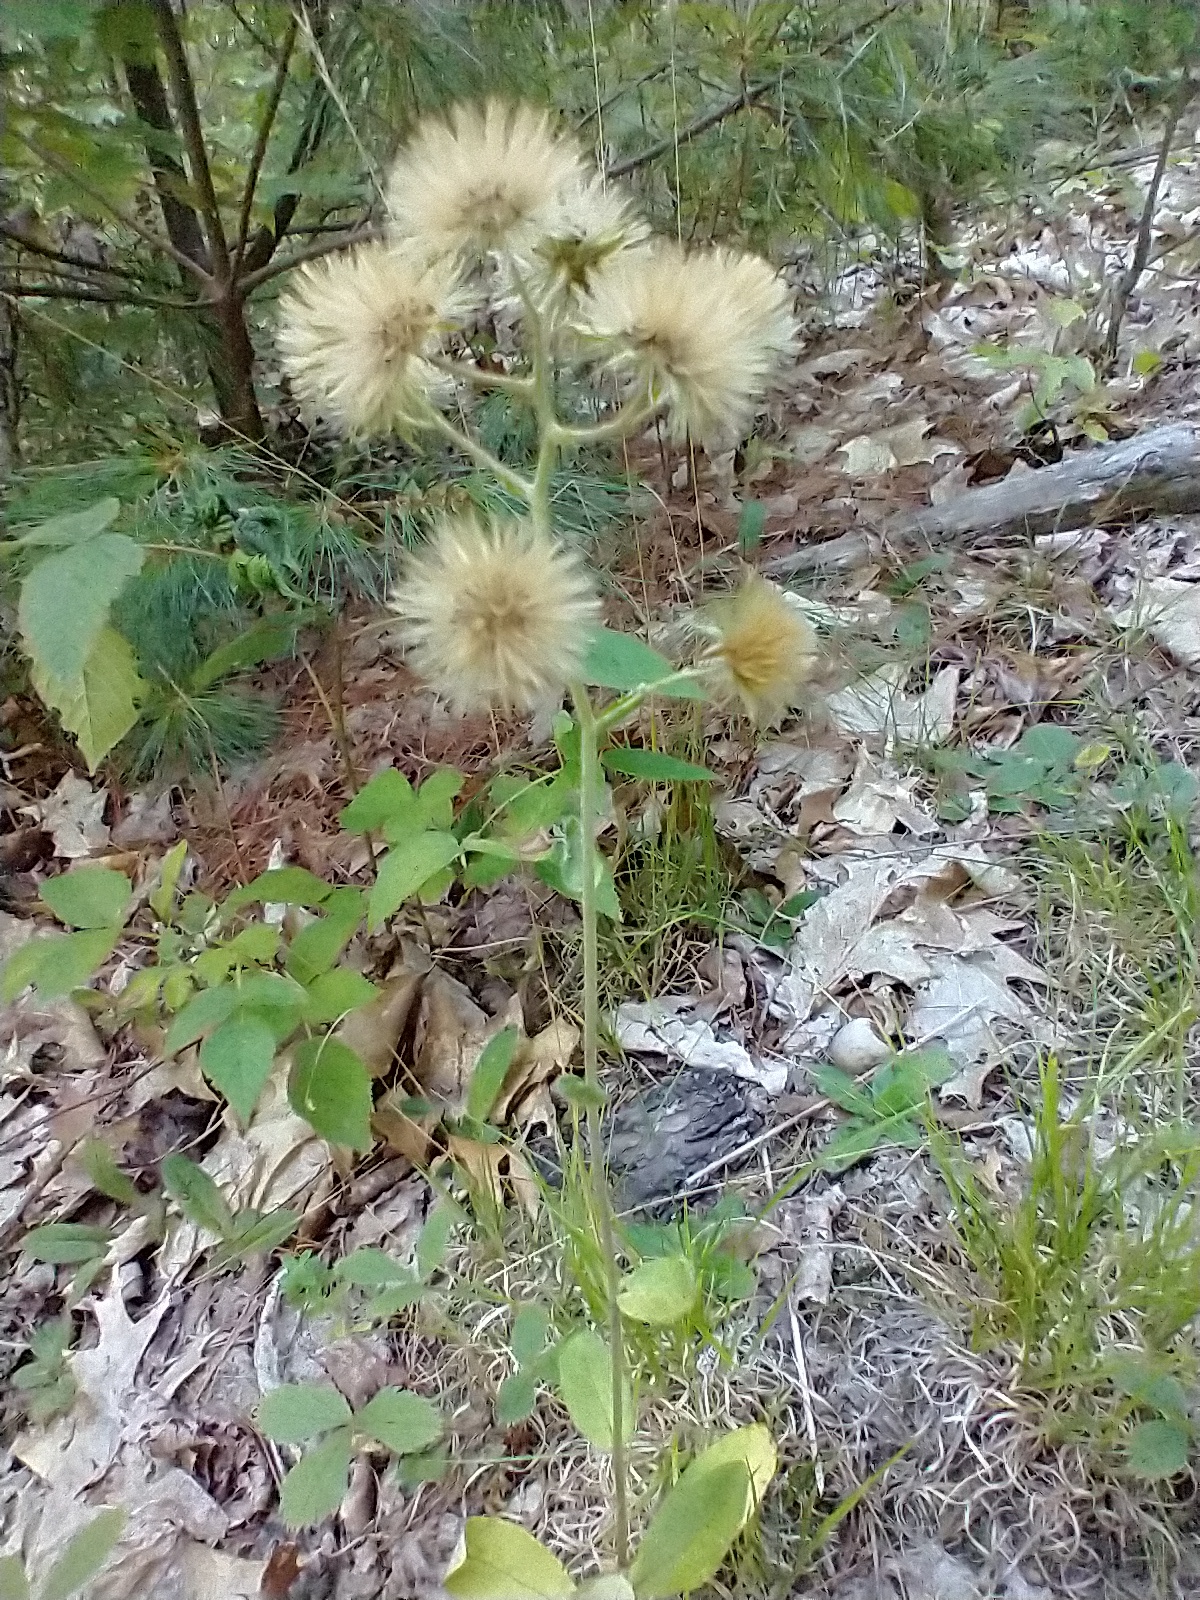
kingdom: Plantae
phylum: Tracheophyta
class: Magnoliopsida
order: Asterales
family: Asteraceae
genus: Hieracium
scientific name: Hieracium scabrum
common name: Rough hawkweed
